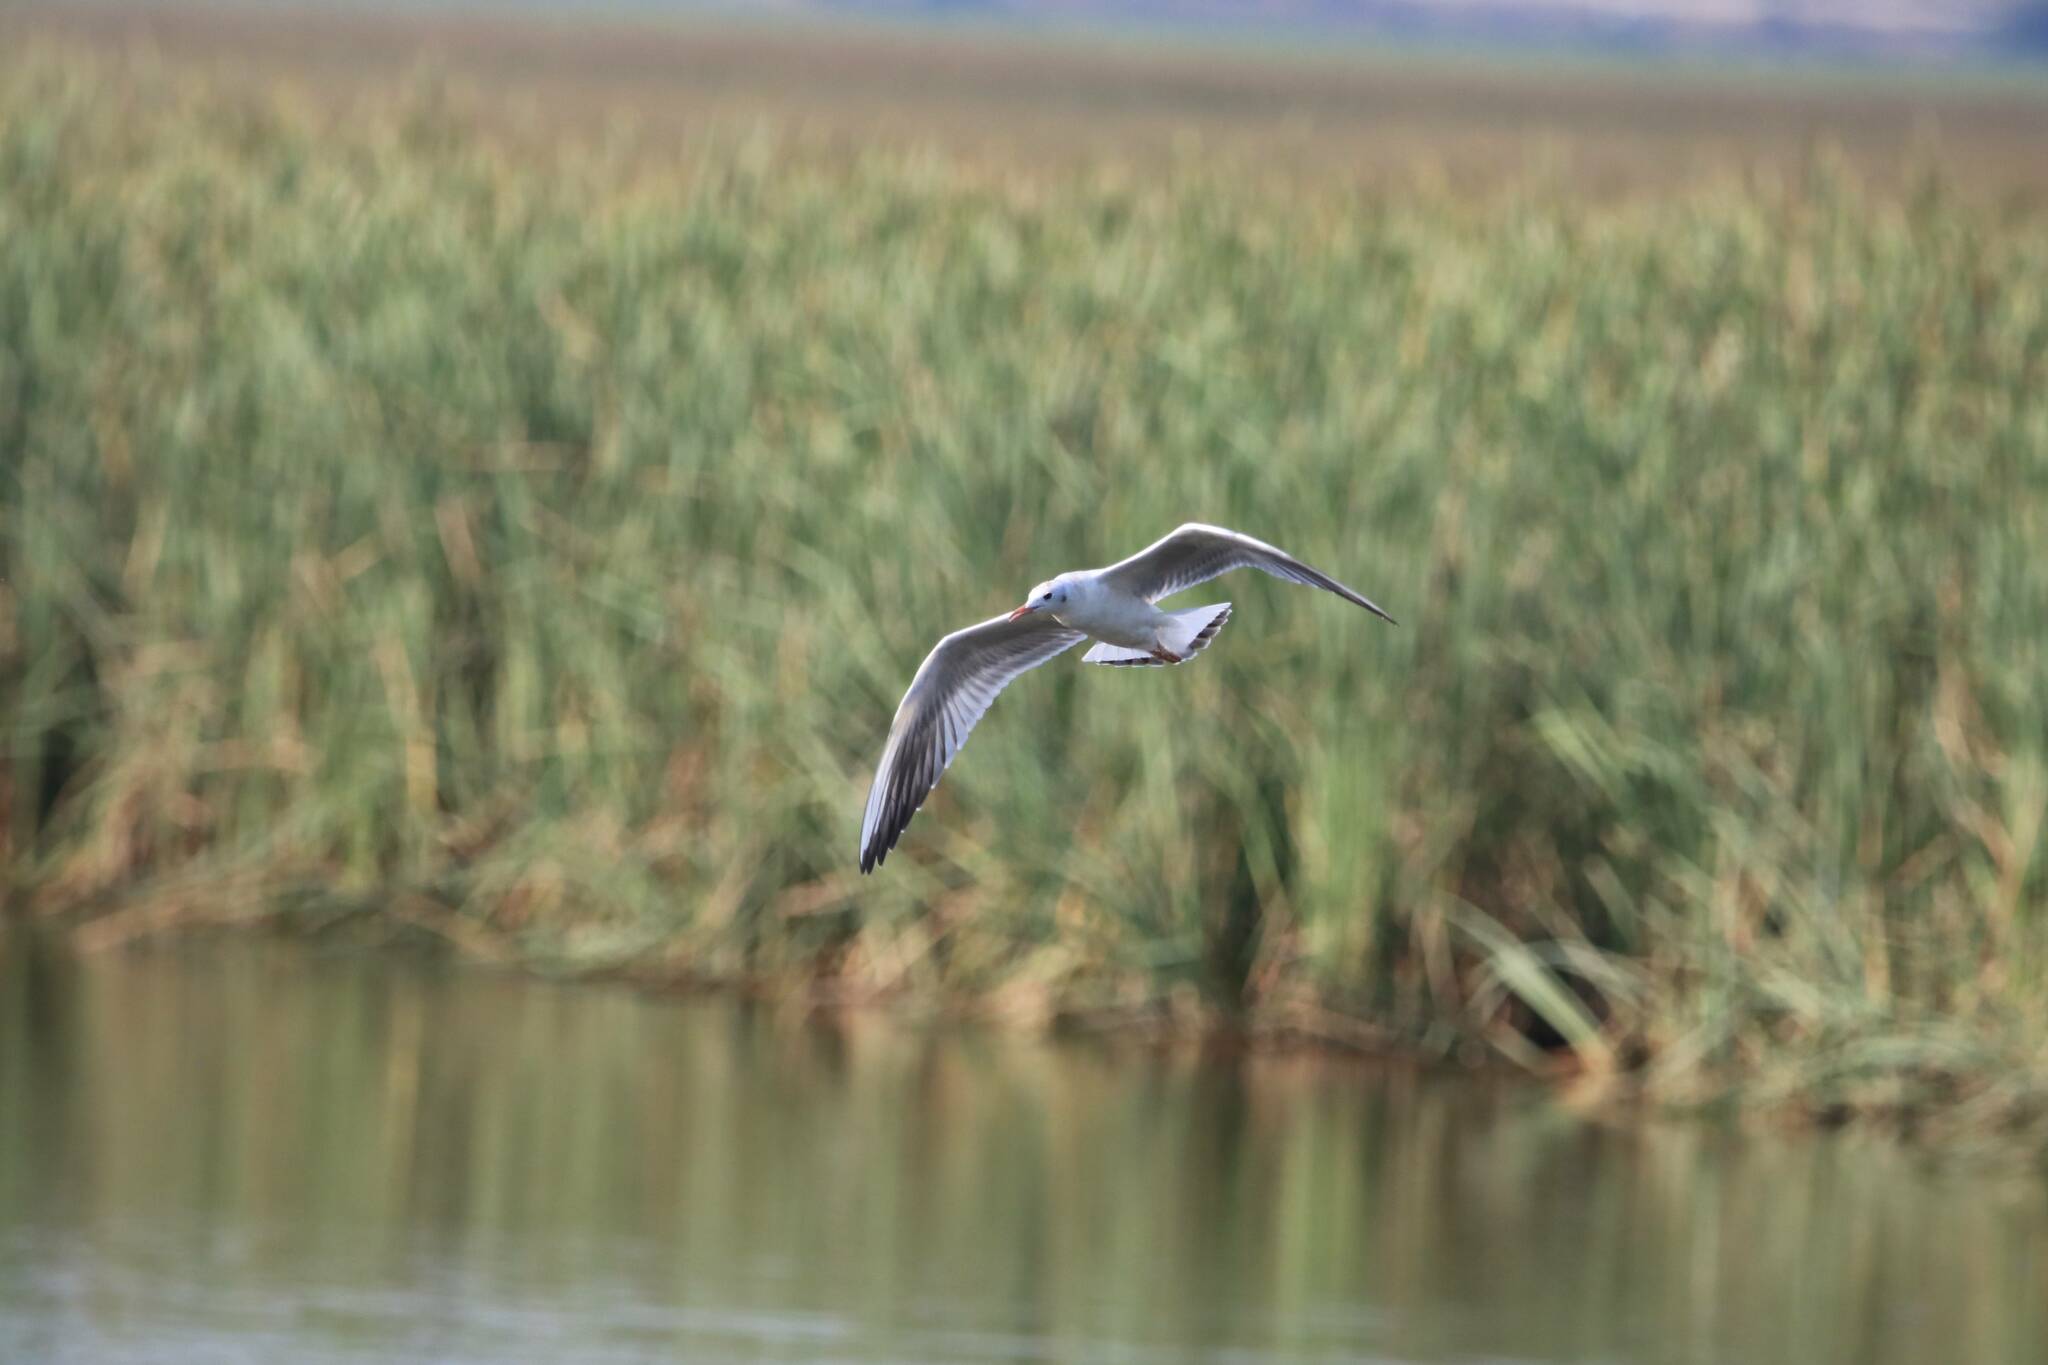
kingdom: Animalia
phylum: Chordata
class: Aves
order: Charadriiformes
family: Laridae
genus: Chroicocephalus
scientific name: Chroicocephalus ridibundus
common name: Black-headed gull
